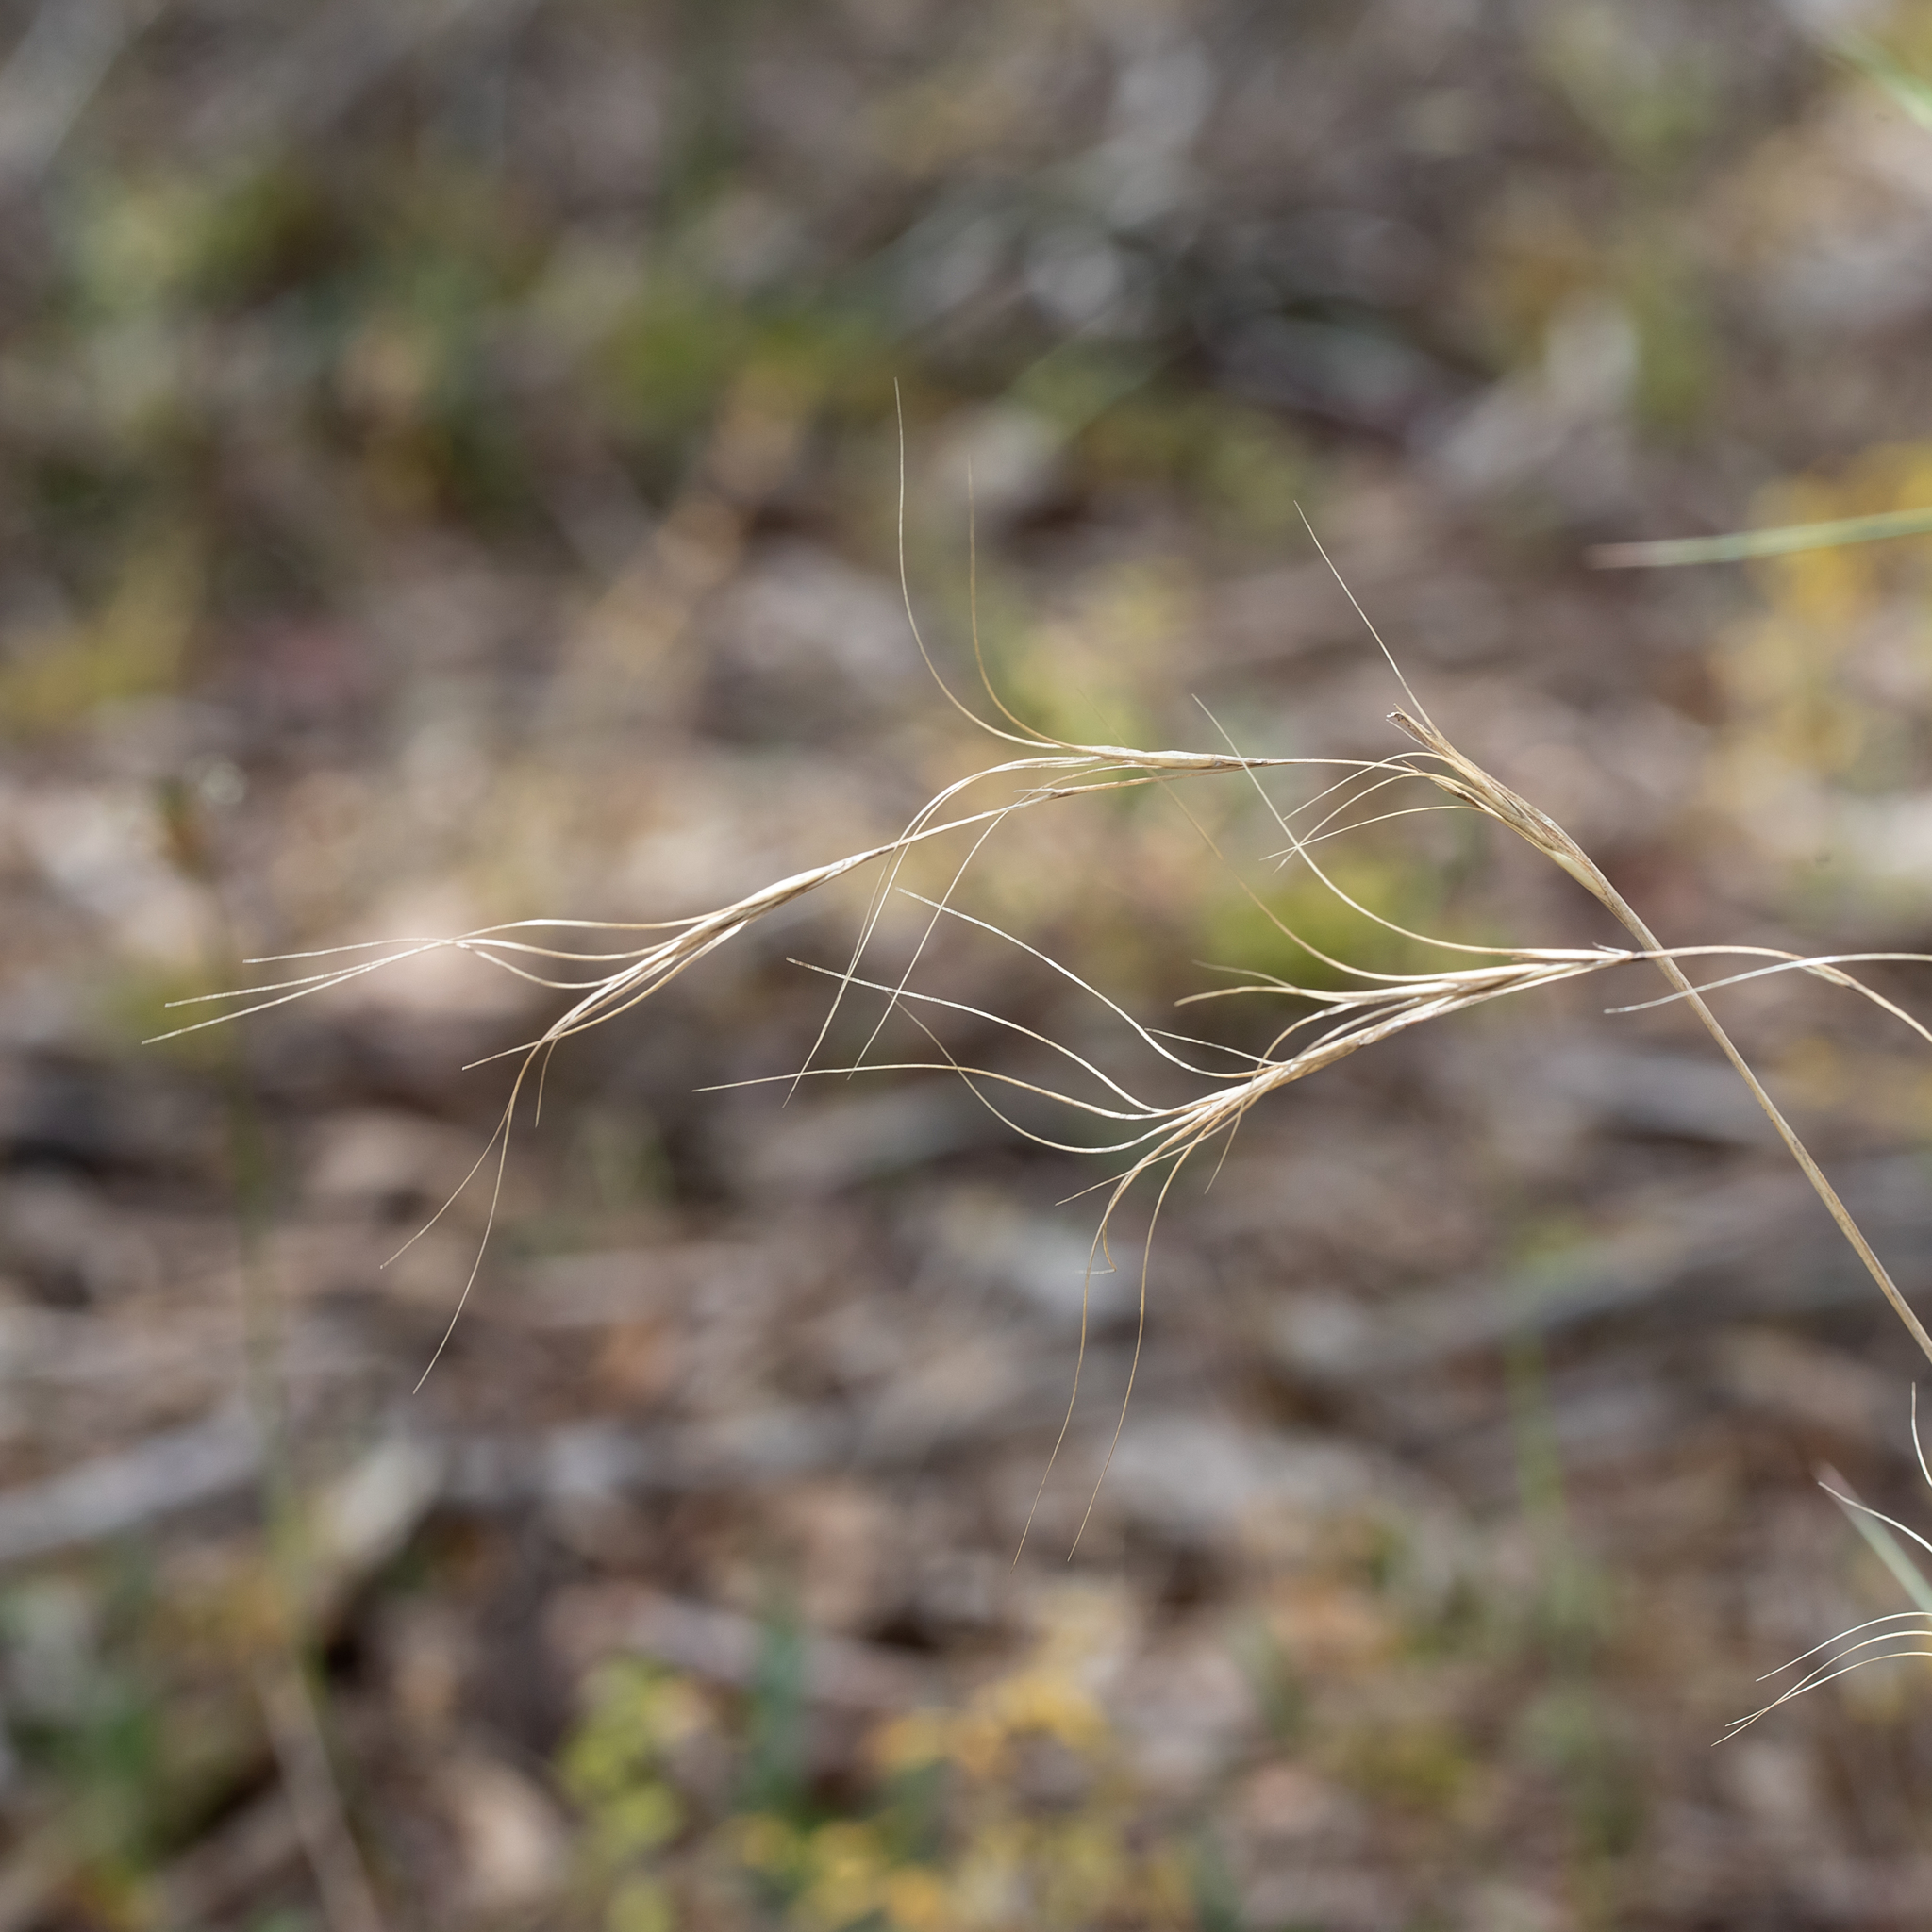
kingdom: Plantae
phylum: Tracheophyta
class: Liliopsida
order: Poales
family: Poaceae
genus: Anthosachne
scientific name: Anthosachne scabra
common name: Common wheatgrass
